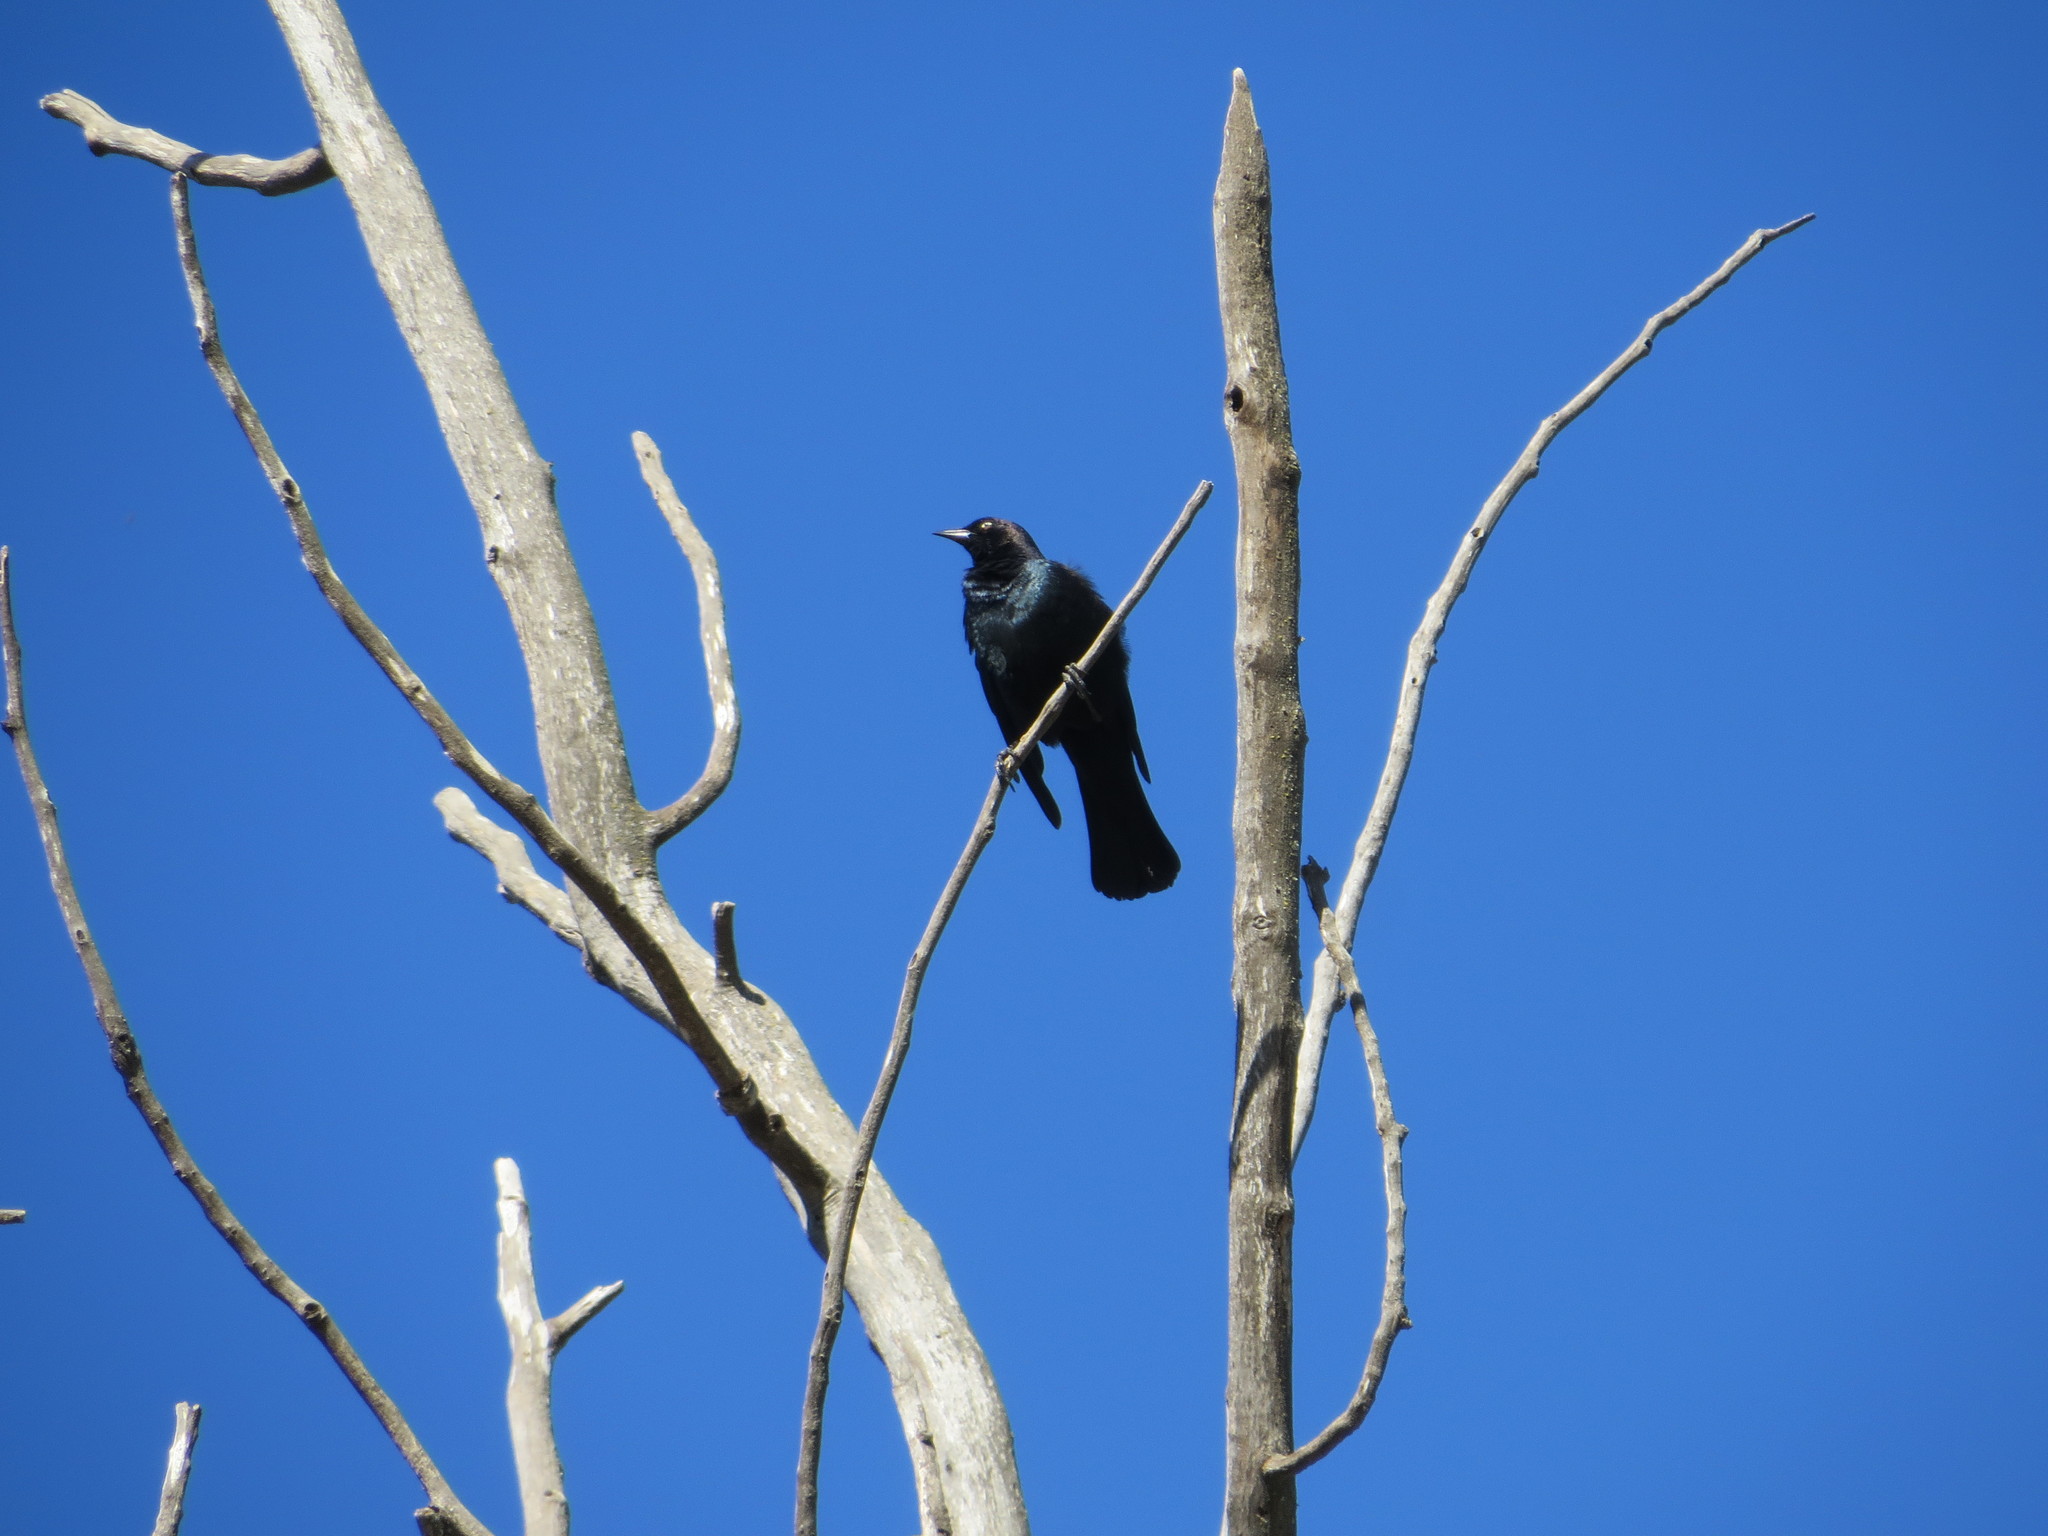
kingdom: Animalia
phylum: Chordata
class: Aves
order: Passeriformes
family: Icteridae
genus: Euphagus
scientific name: Euphagus cyanocephalus
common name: Brewer's blackbird
